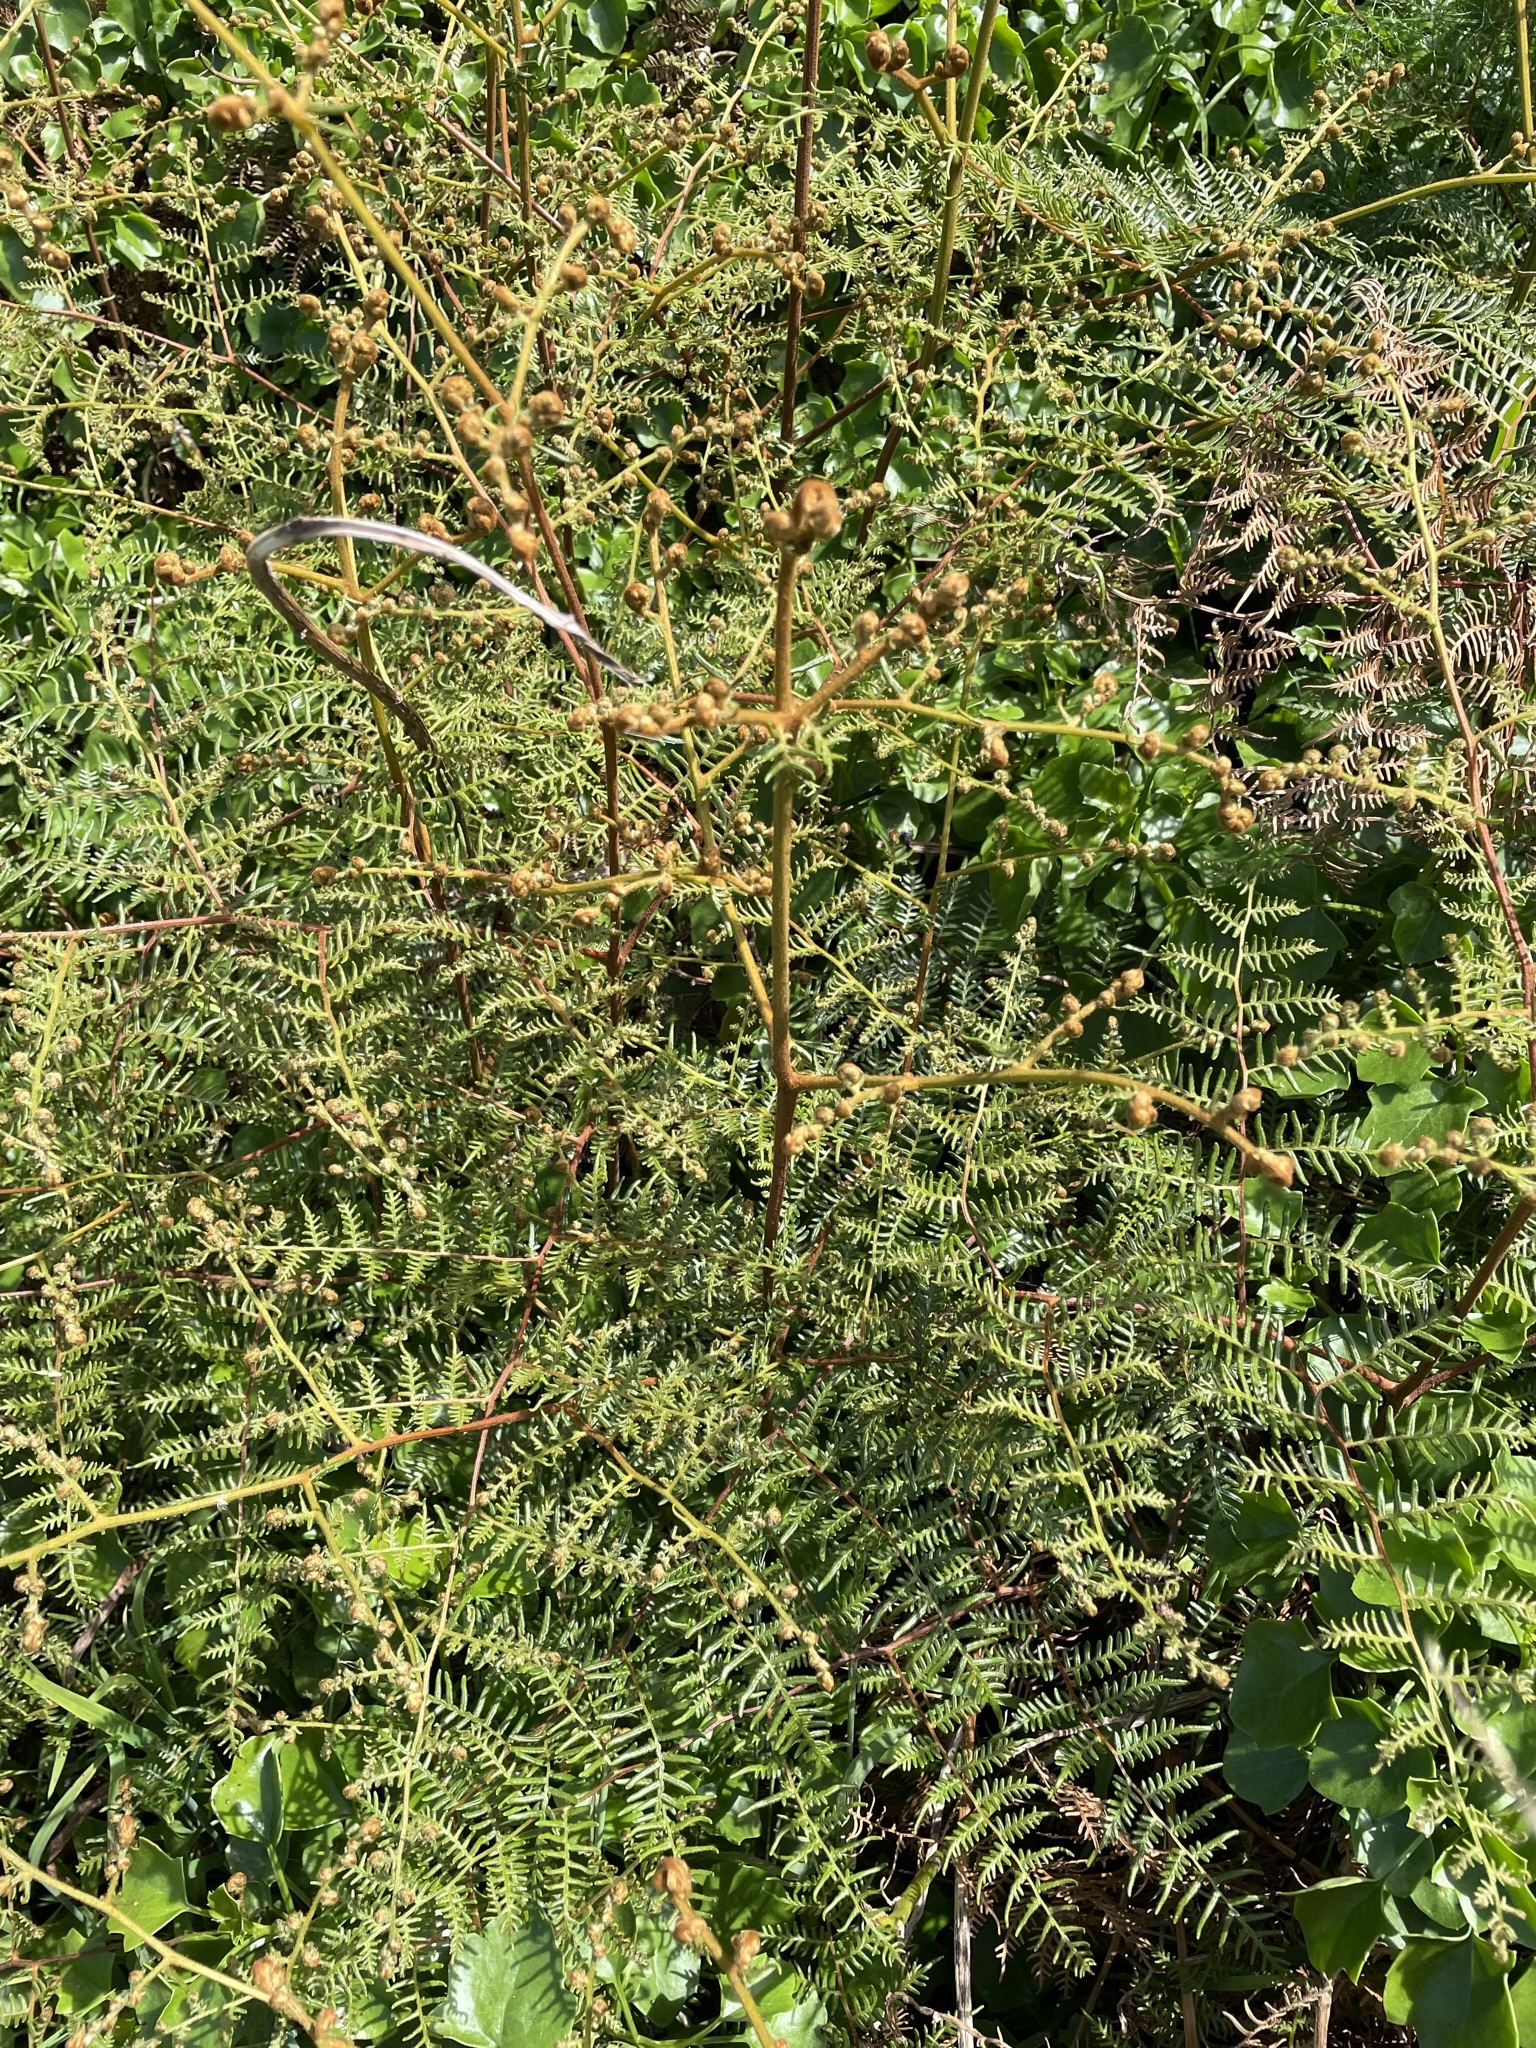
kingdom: Plantae
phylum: Tracheophyta
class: Polypodiopsida
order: Polypodiales
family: Dennstaedtiaceae
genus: Pteridium
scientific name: Pteridium esculentum
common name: Bracken fern
